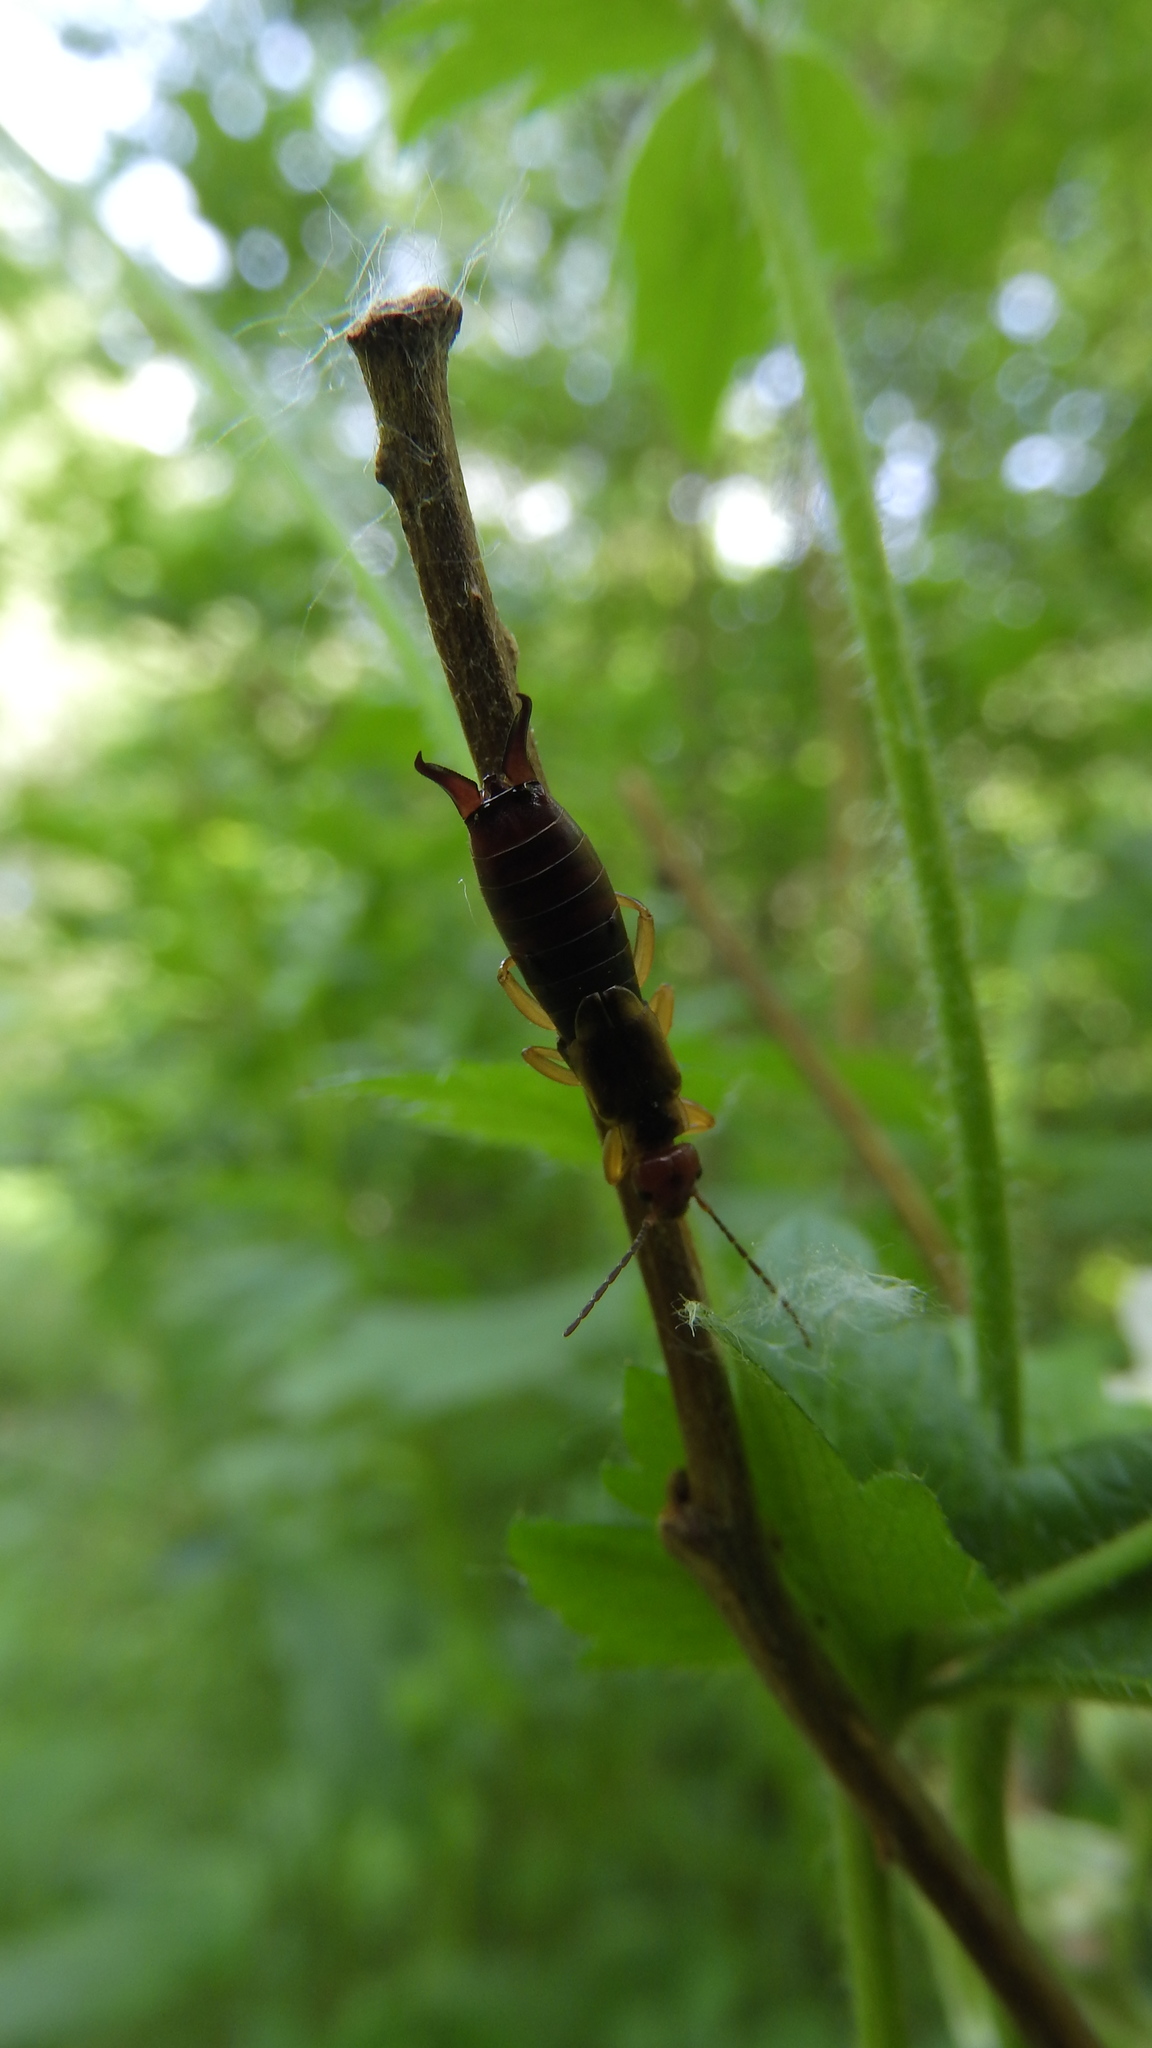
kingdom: Animalia
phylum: Arthropoda
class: Insecta
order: Dermaptera
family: Forficulidae
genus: Forficula
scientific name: Forficula
